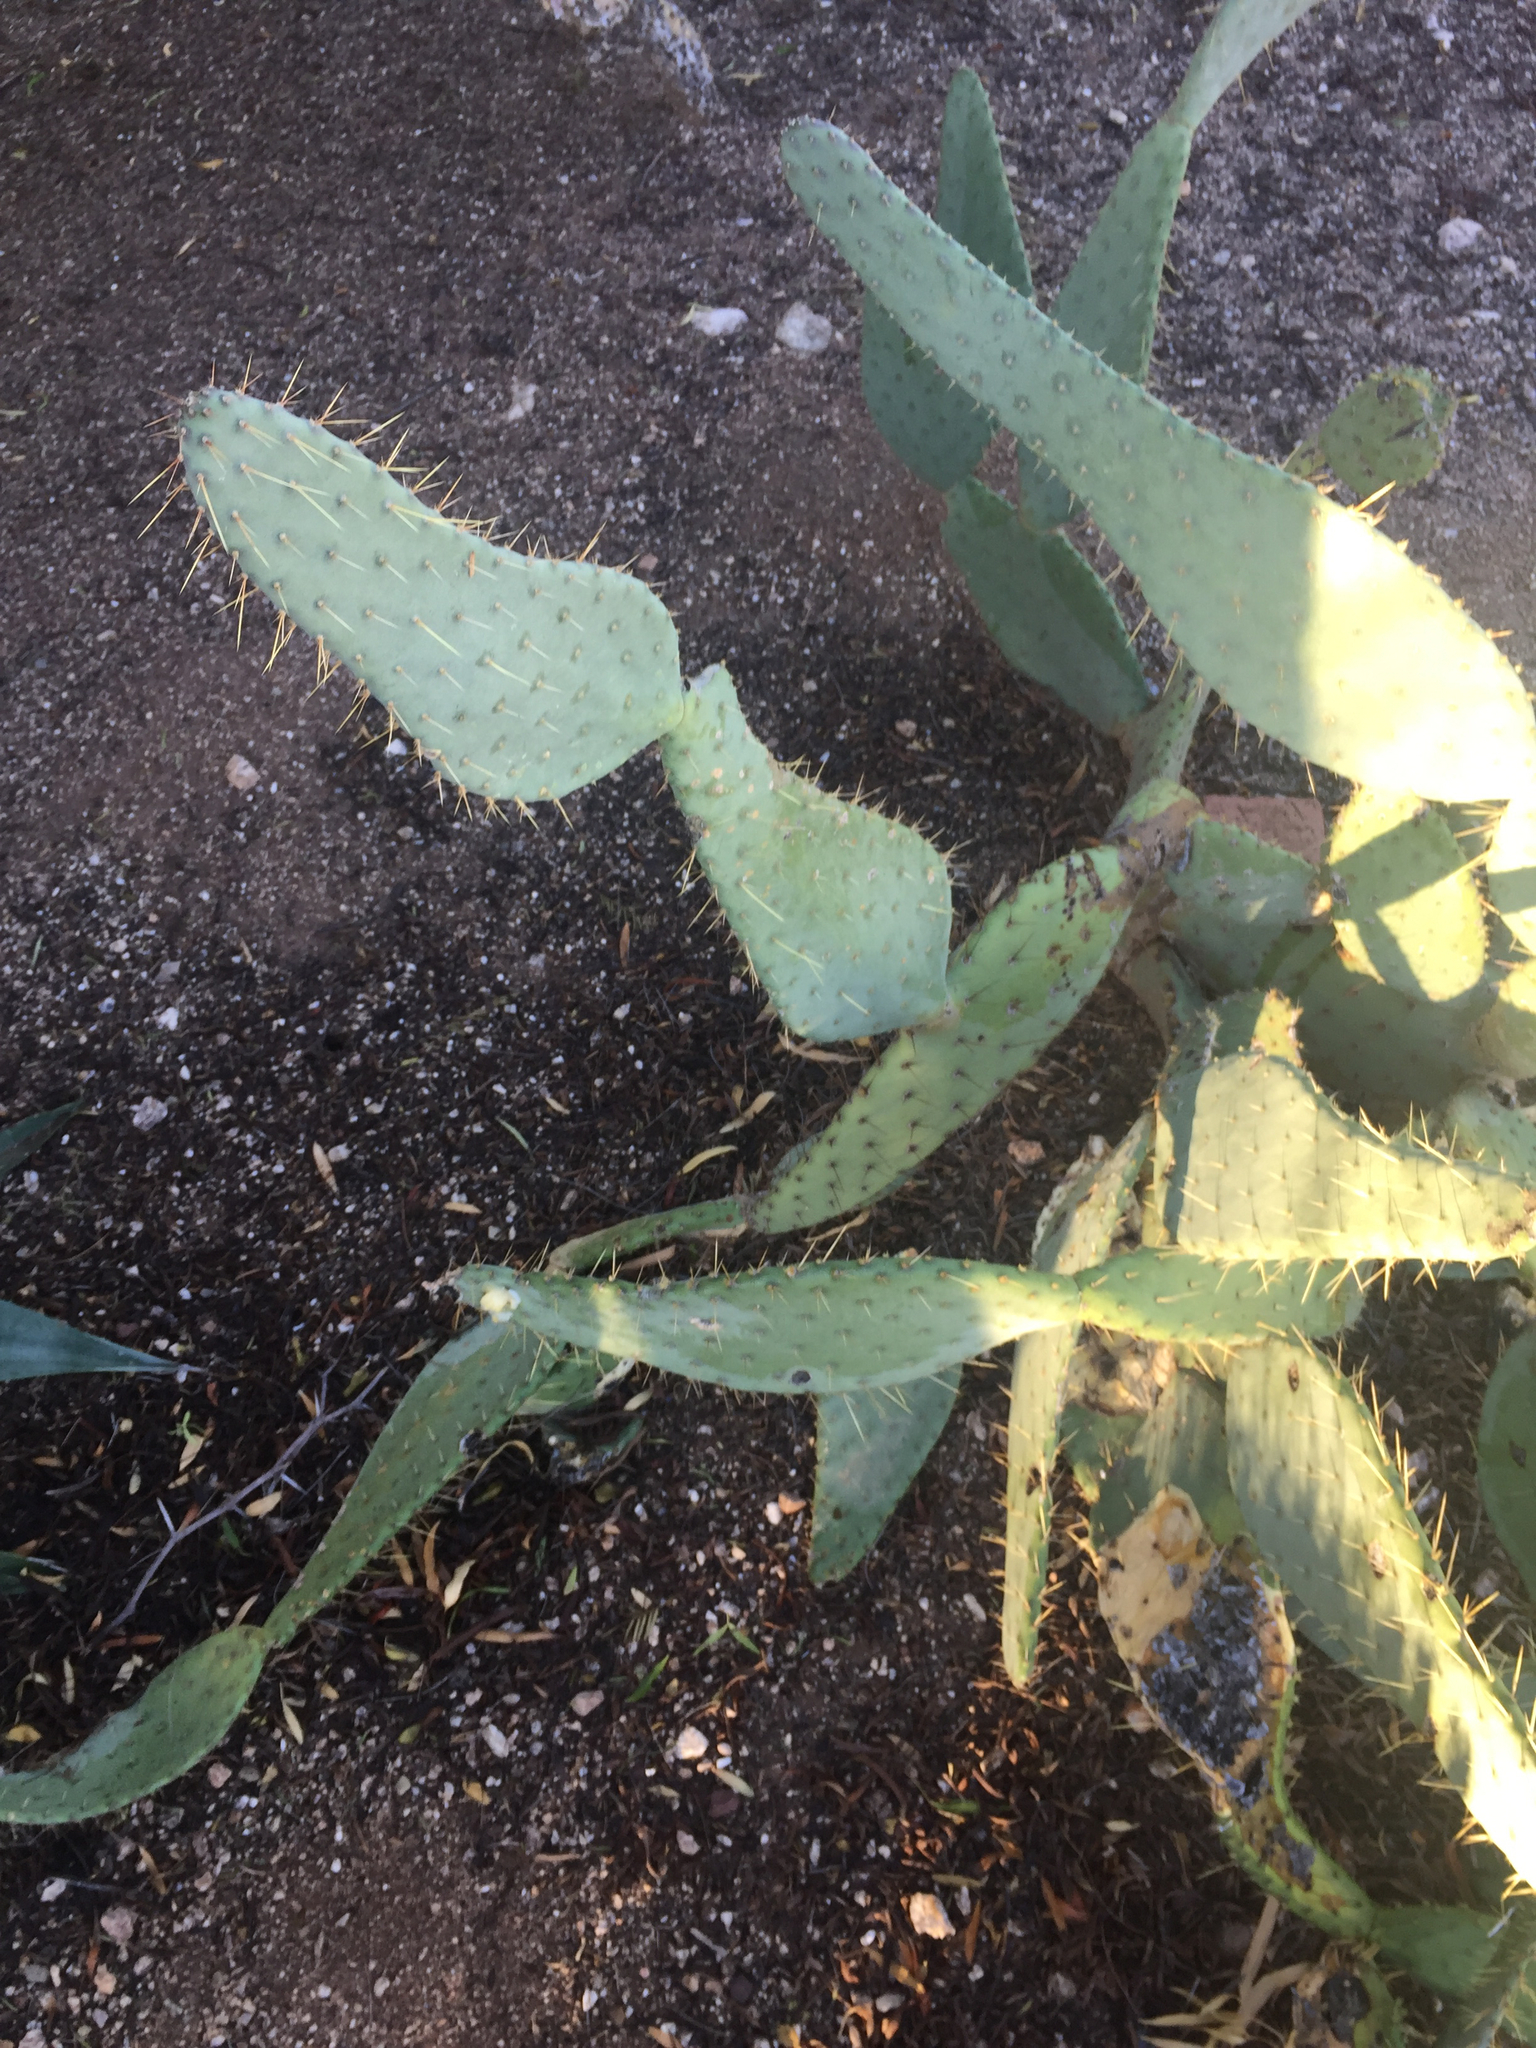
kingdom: Plantae
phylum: Tracheophyta
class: Magnoliopsida
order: Caryophyllales
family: Cactaceae
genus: Opuntia
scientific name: Opuntia engelmannii
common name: Cactus-apple
